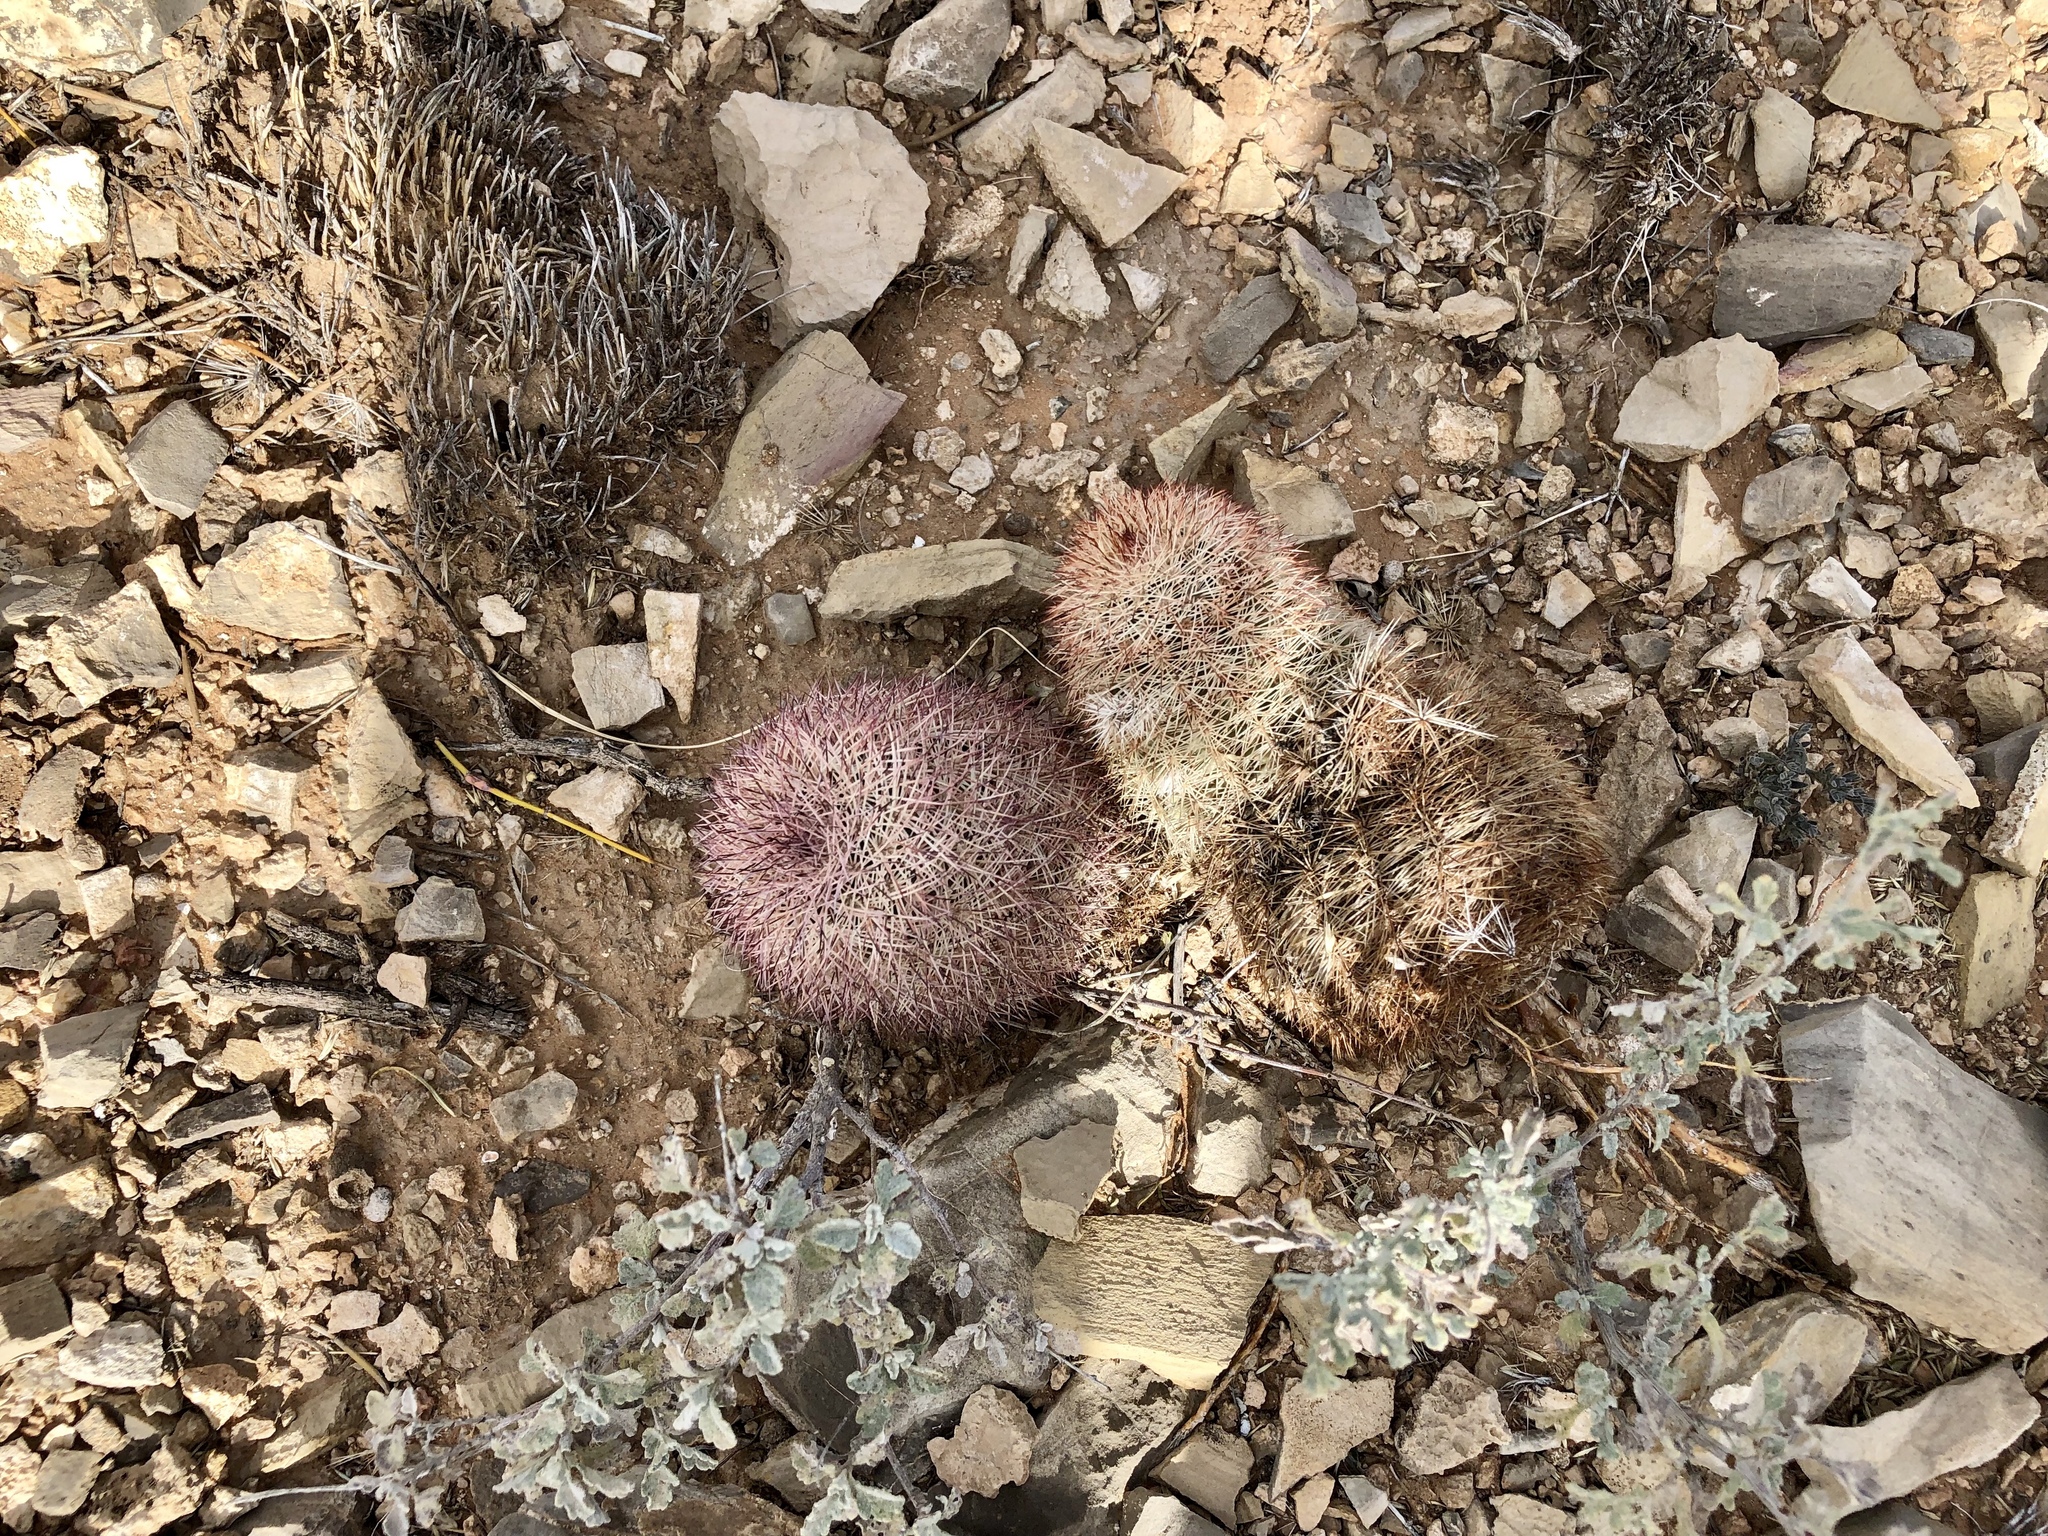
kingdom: Plantae
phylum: Tracheophyta
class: Magnoliopsida
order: Caryophyllales
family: Cactaceae
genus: Echinocereus
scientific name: Echinocereus dasyacanthus
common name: Spiny hedgehog cactus
